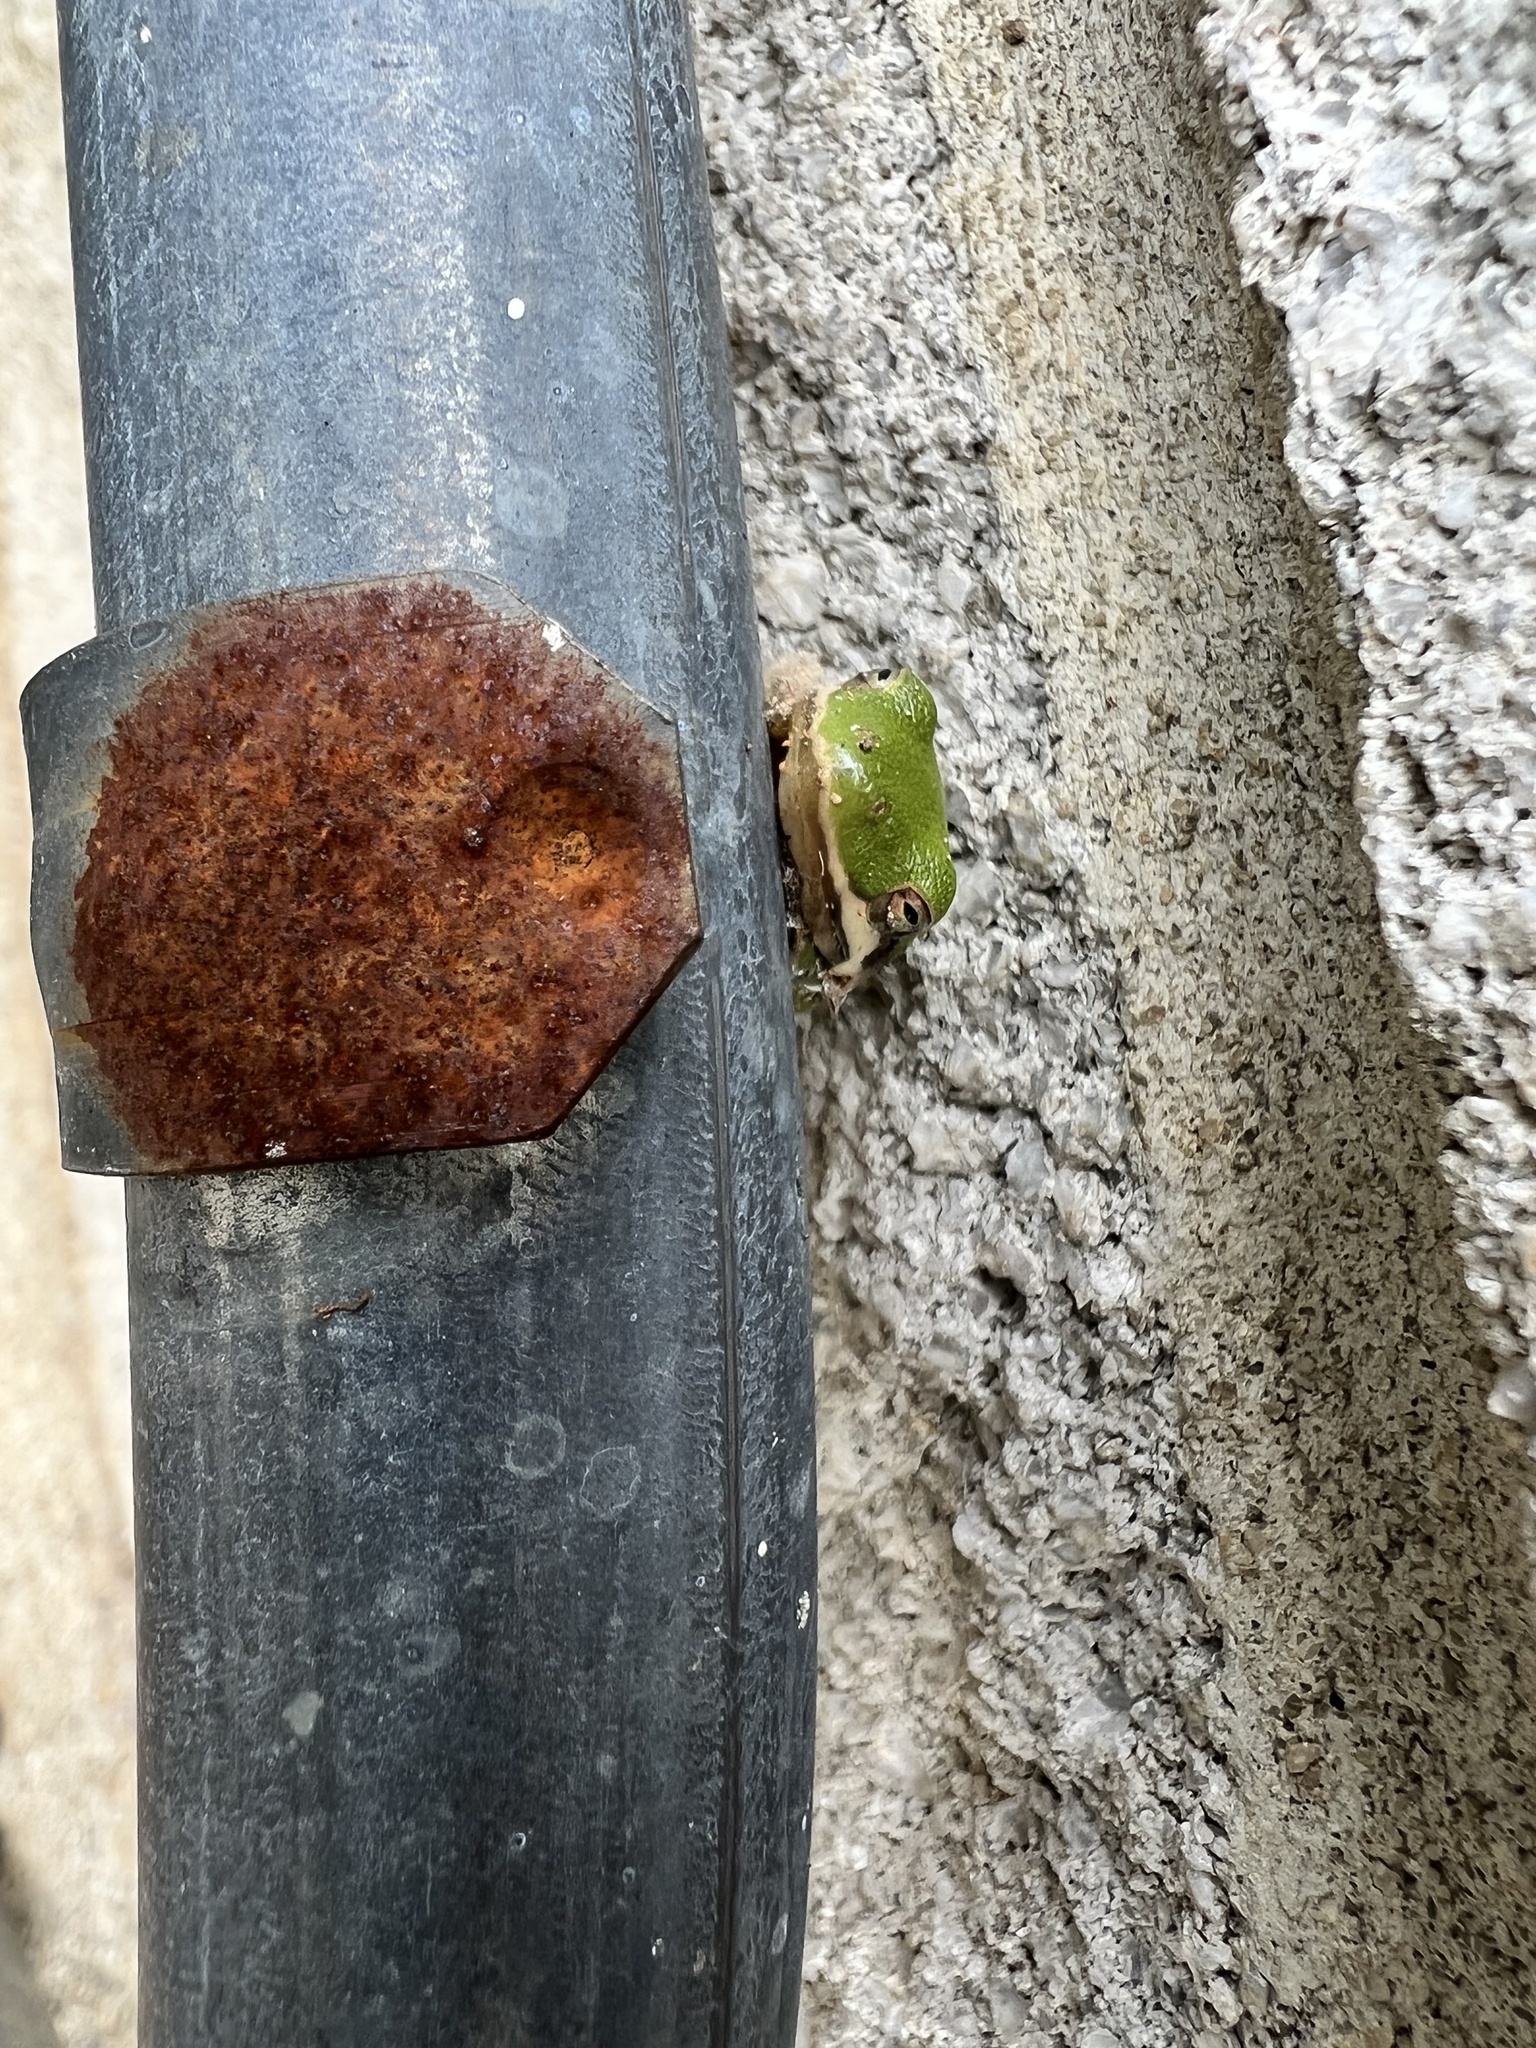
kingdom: Animalia
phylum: Chordata
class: Amphibia
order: Anura
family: Hylidae
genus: Dryophytes
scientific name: Dryophytes cinereus
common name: Green treefrog
